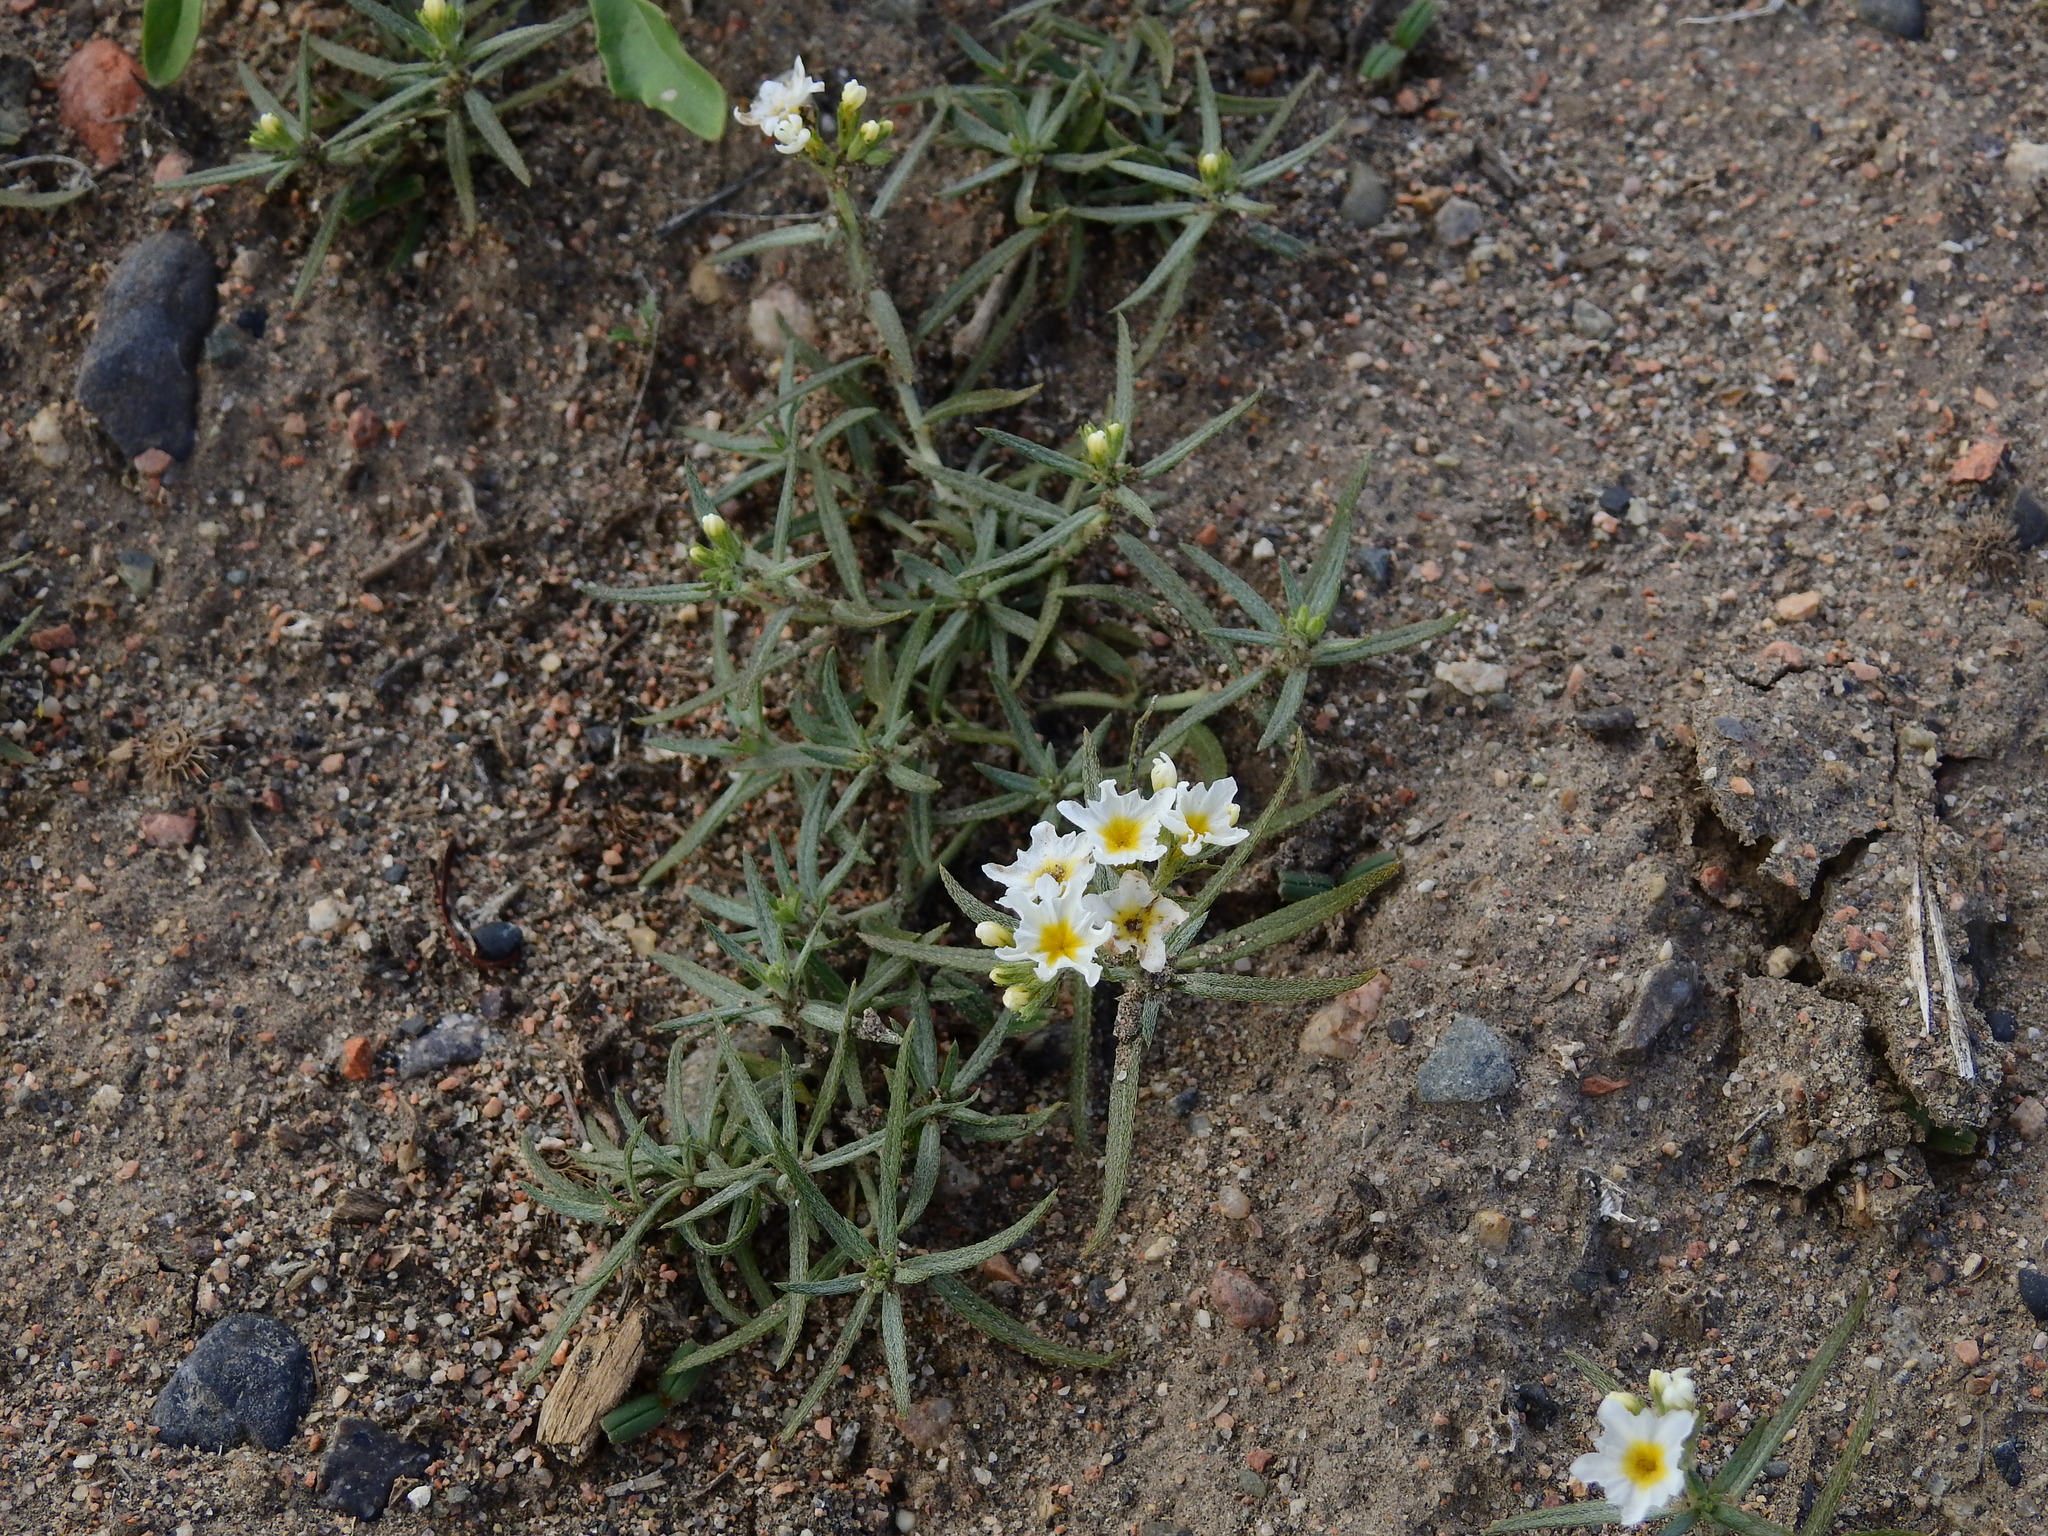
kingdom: Plantae
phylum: Tracheophyta
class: Magnoliopsida
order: Boraginales
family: Heliotropiaceae
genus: Euploca
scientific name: Euploca mendocina
